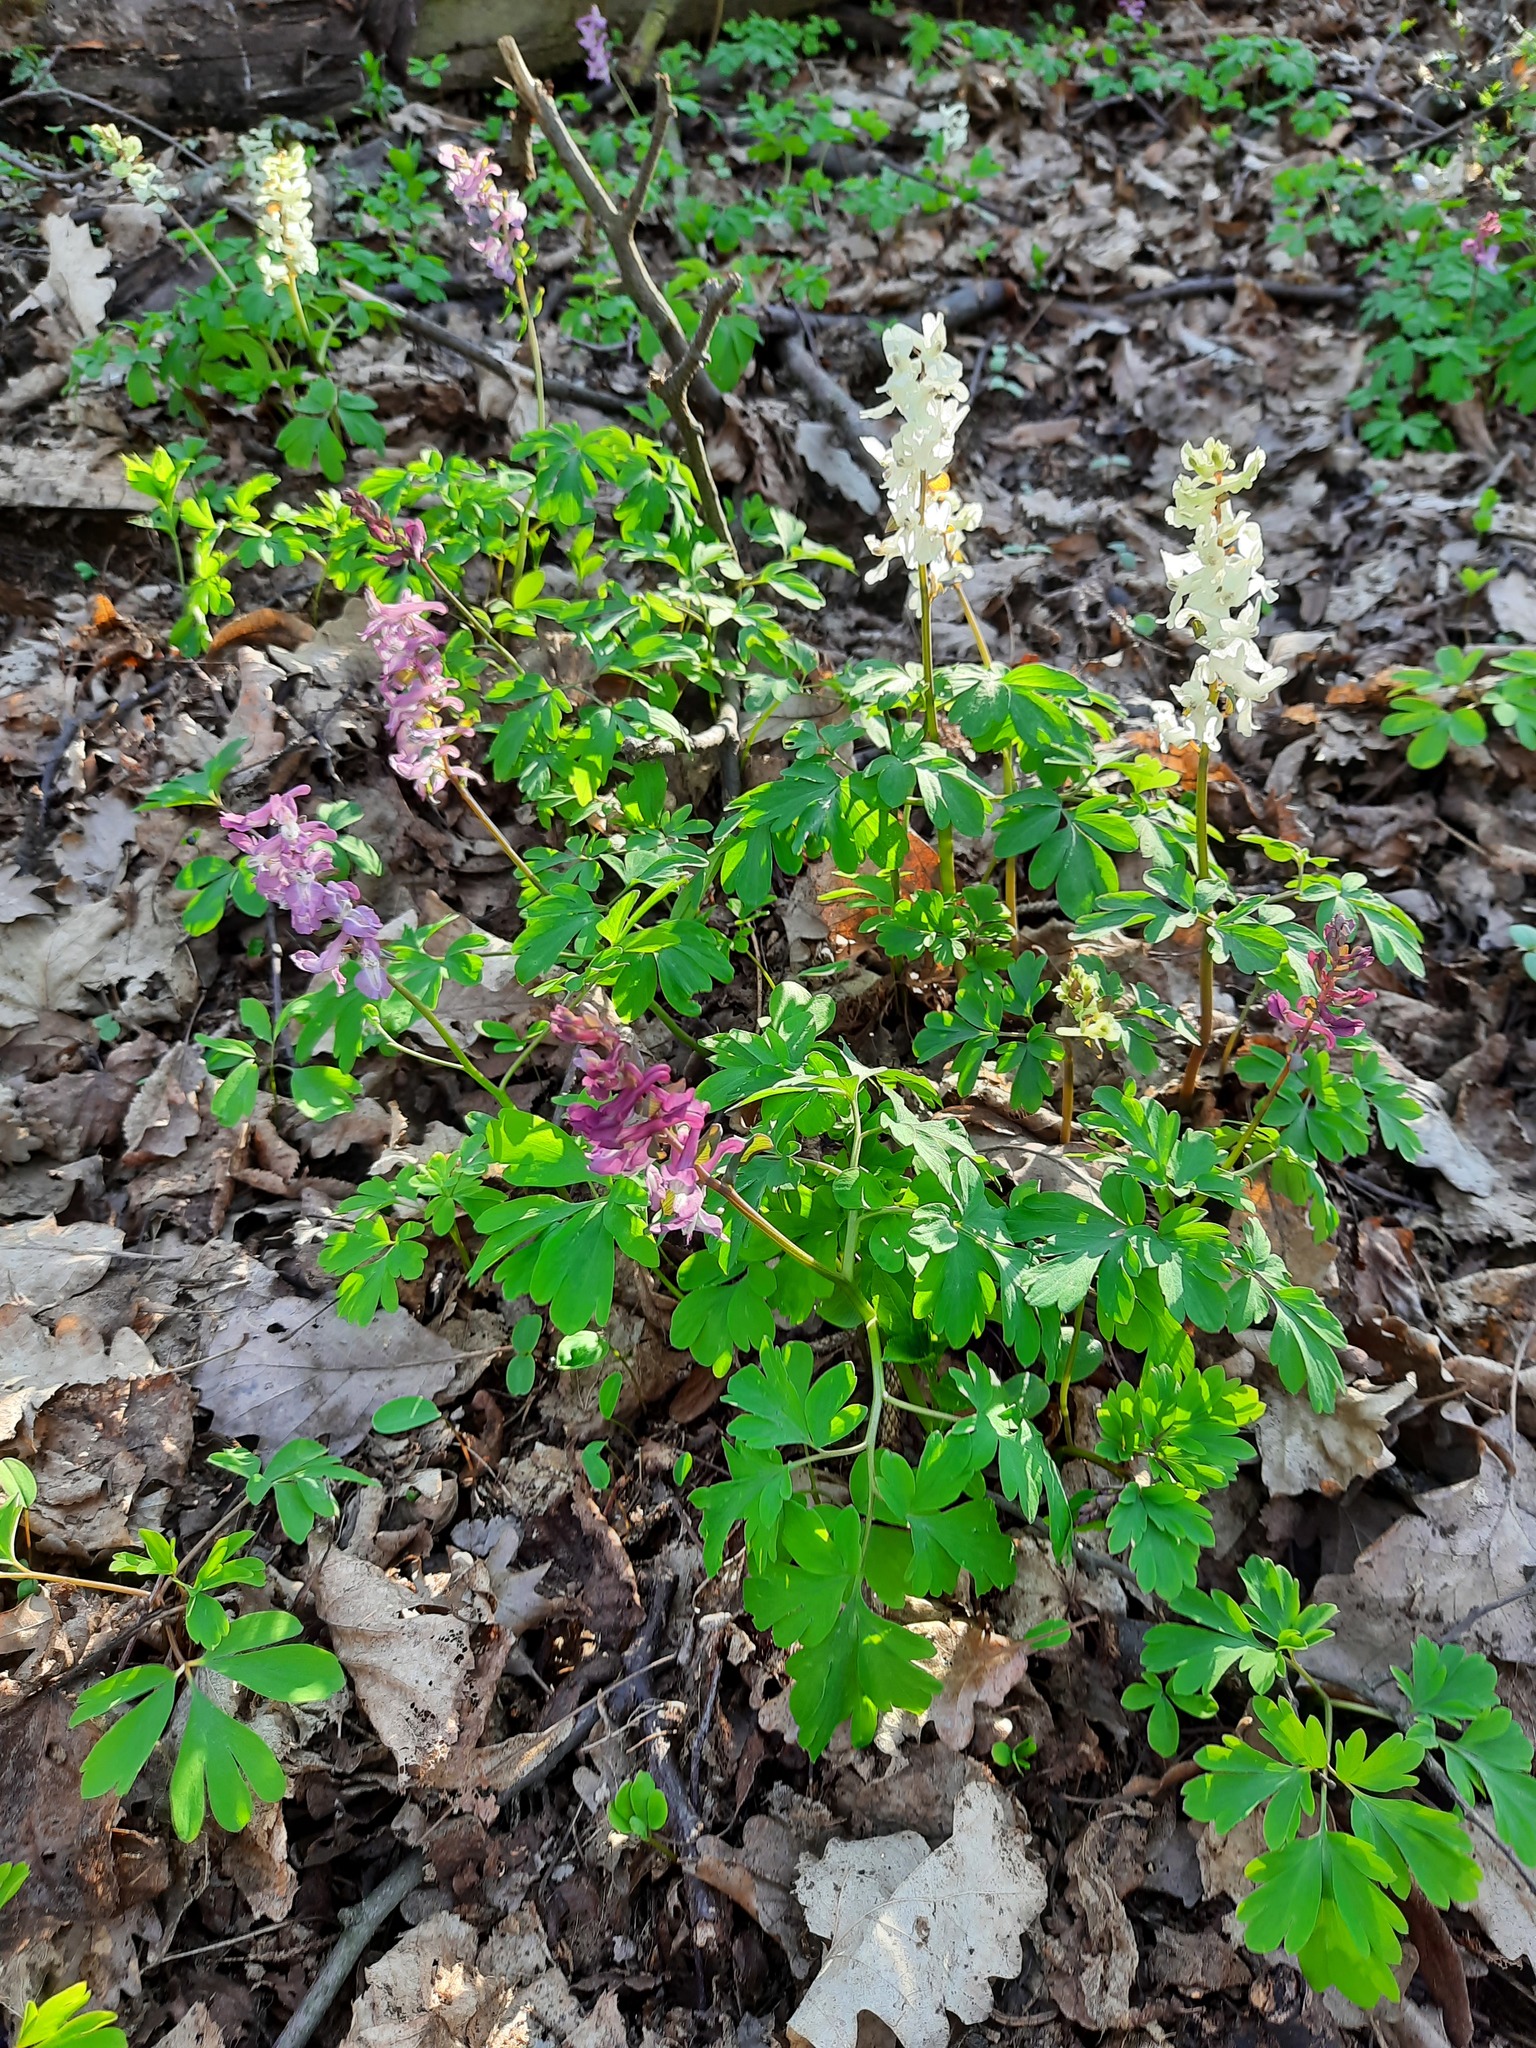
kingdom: Plantae
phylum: Tracheophyta
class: Magnoliopsida
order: Ranunculales
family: Papaveraceae
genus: Corydalis
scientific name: Corydalis cava
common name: Hollowroot
